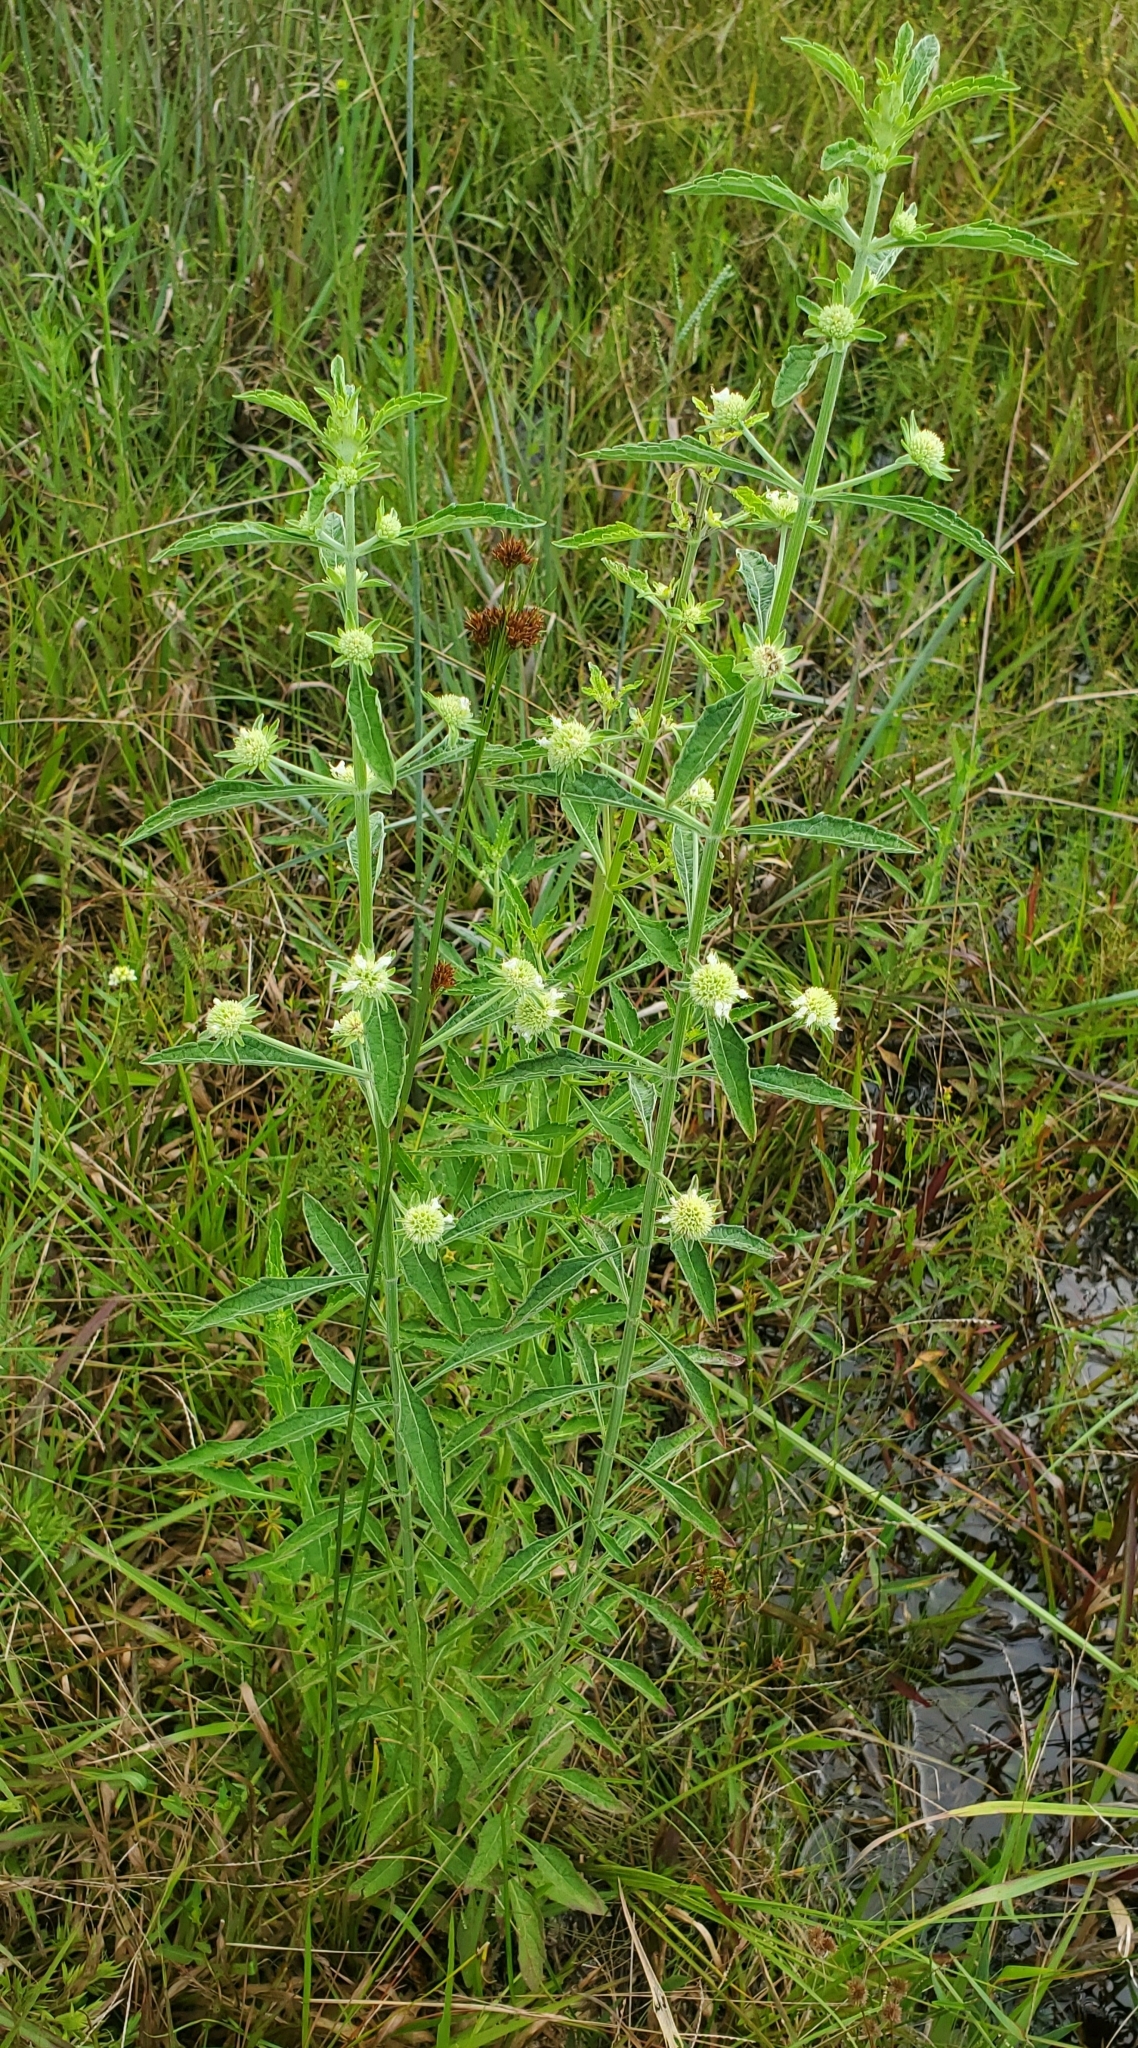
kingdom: Plantae
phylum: Tracheophyta
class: Magnoliopsida
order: Lamiales
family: Lamiaceae
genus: Hyptis
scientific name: Hyptis alata
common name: Cluster bush-mint
